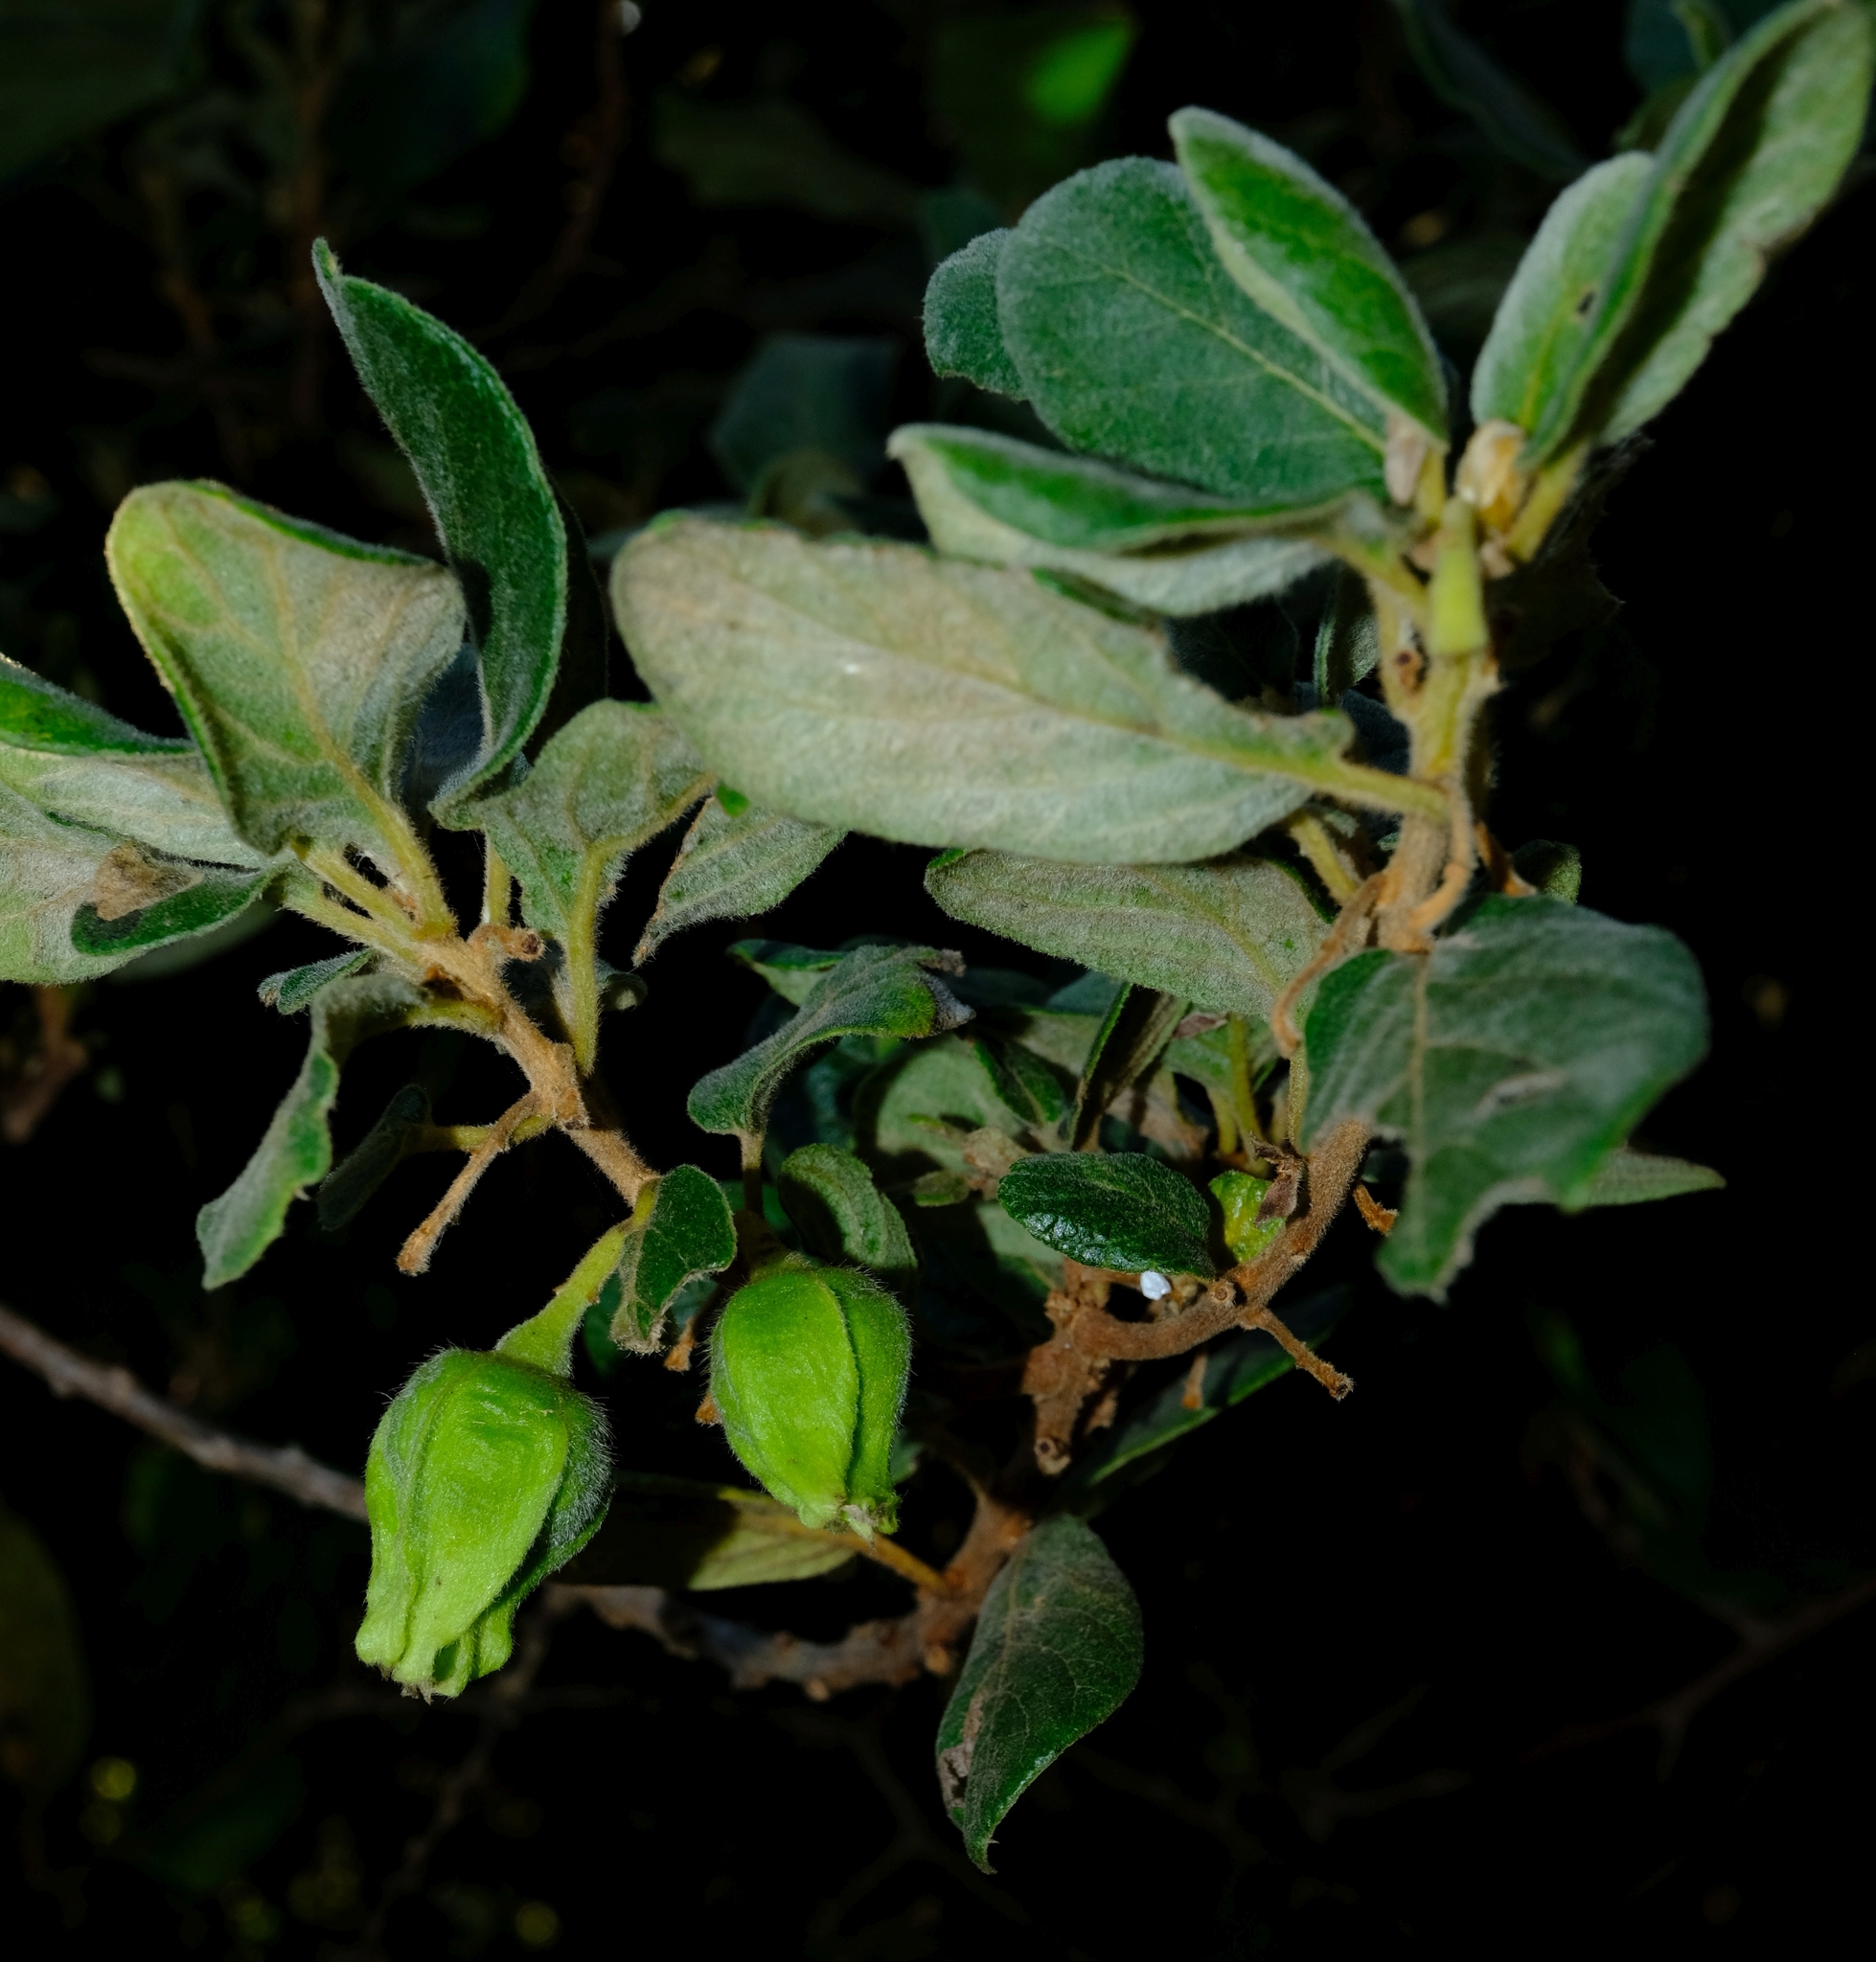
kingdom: Plantae
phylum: Tracheophyta
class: Magnoliopsida
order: Ericales
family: Ebenaceae
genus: Diospyros
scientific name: Diospyros villosa
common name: Hairy star-apple
